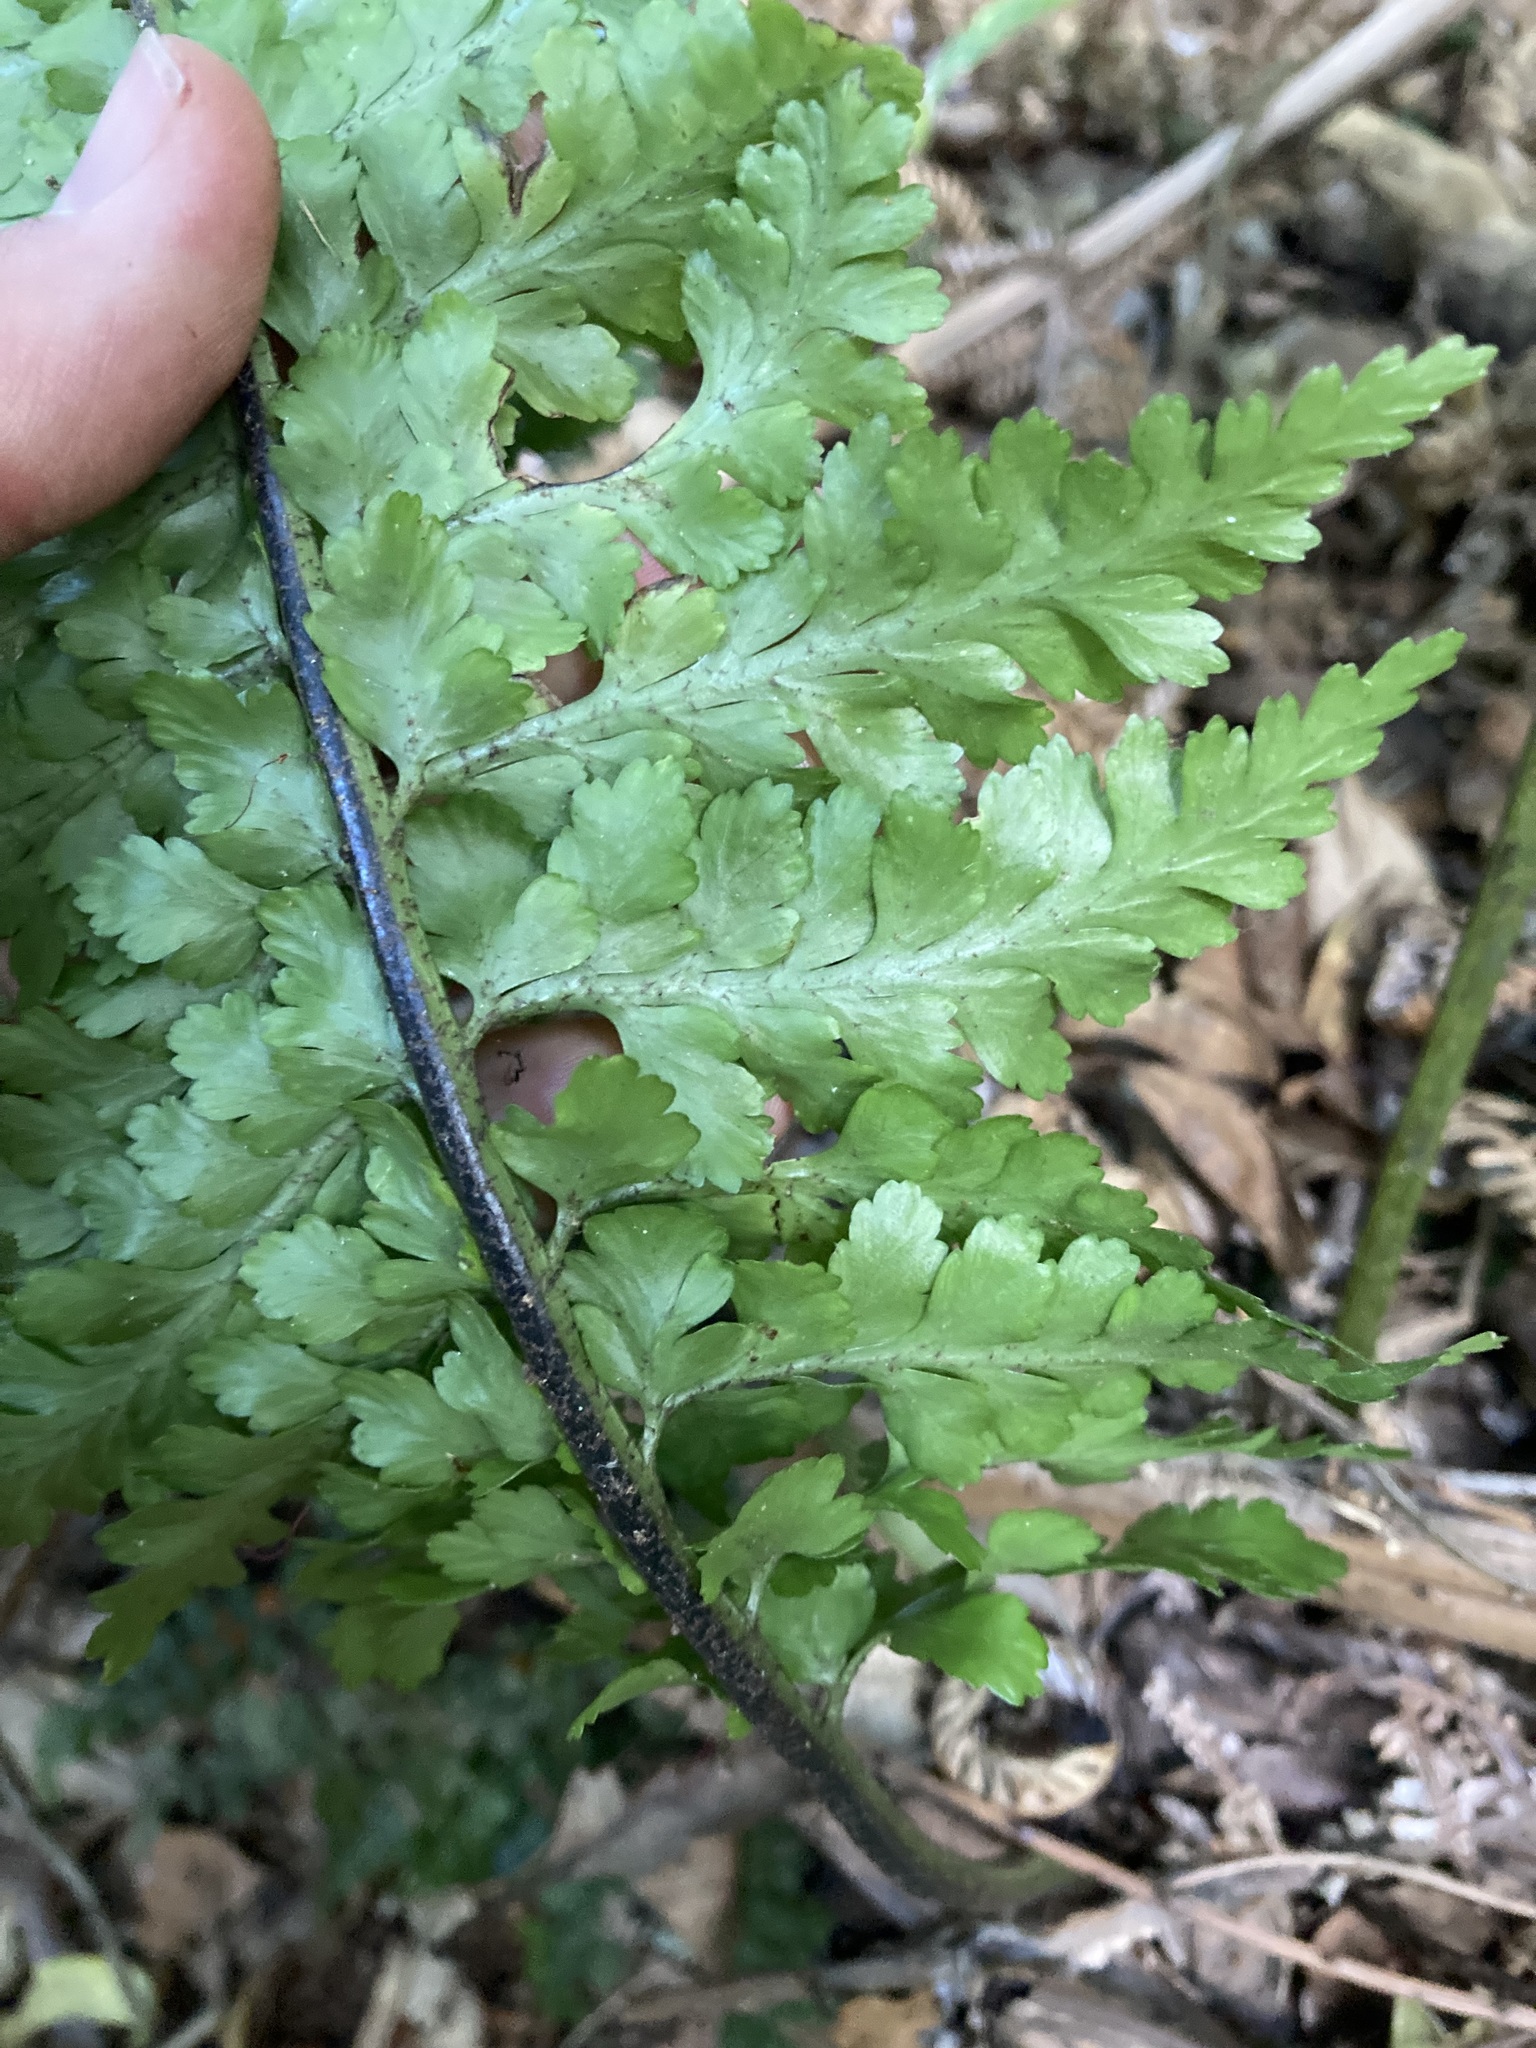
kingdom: Plantae
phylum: Tracheophyta
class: Polypodiopsida
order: Polypodiales
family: Aspleniaceae
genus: Asplenium
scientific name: Asplenium bulbiferum
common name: Mother fern
